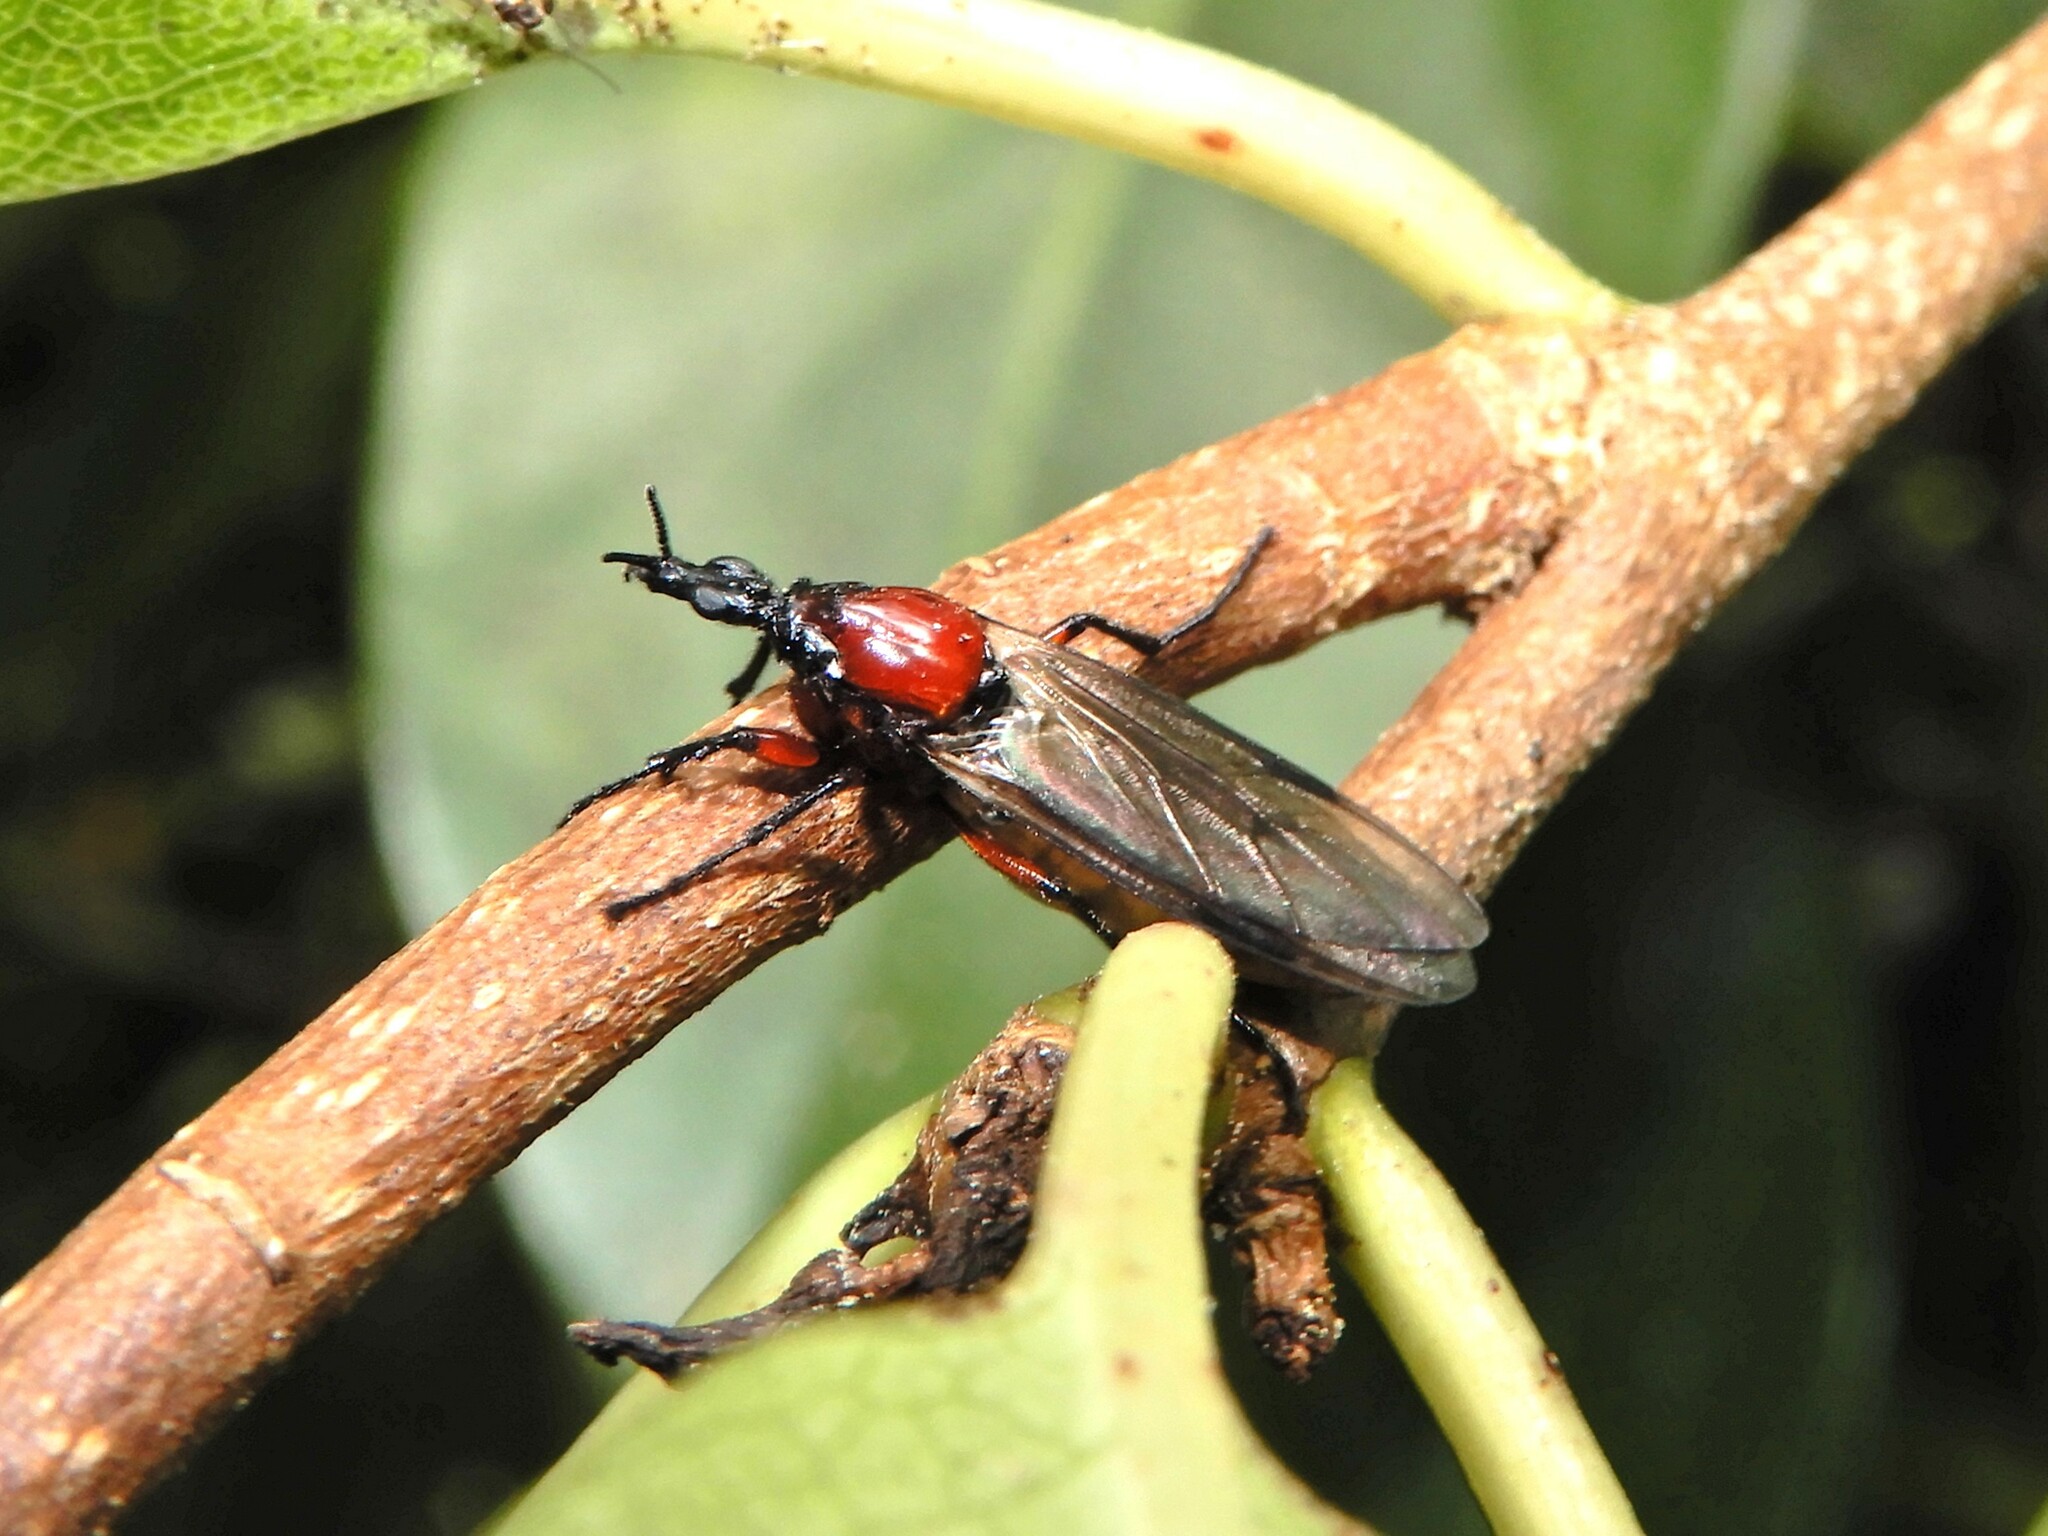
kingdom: Animalia
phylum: Arthropoda
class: Insecta
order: Diptera
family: Bibionidae
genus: Dilophus
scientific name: Dilophus nigrostigma
